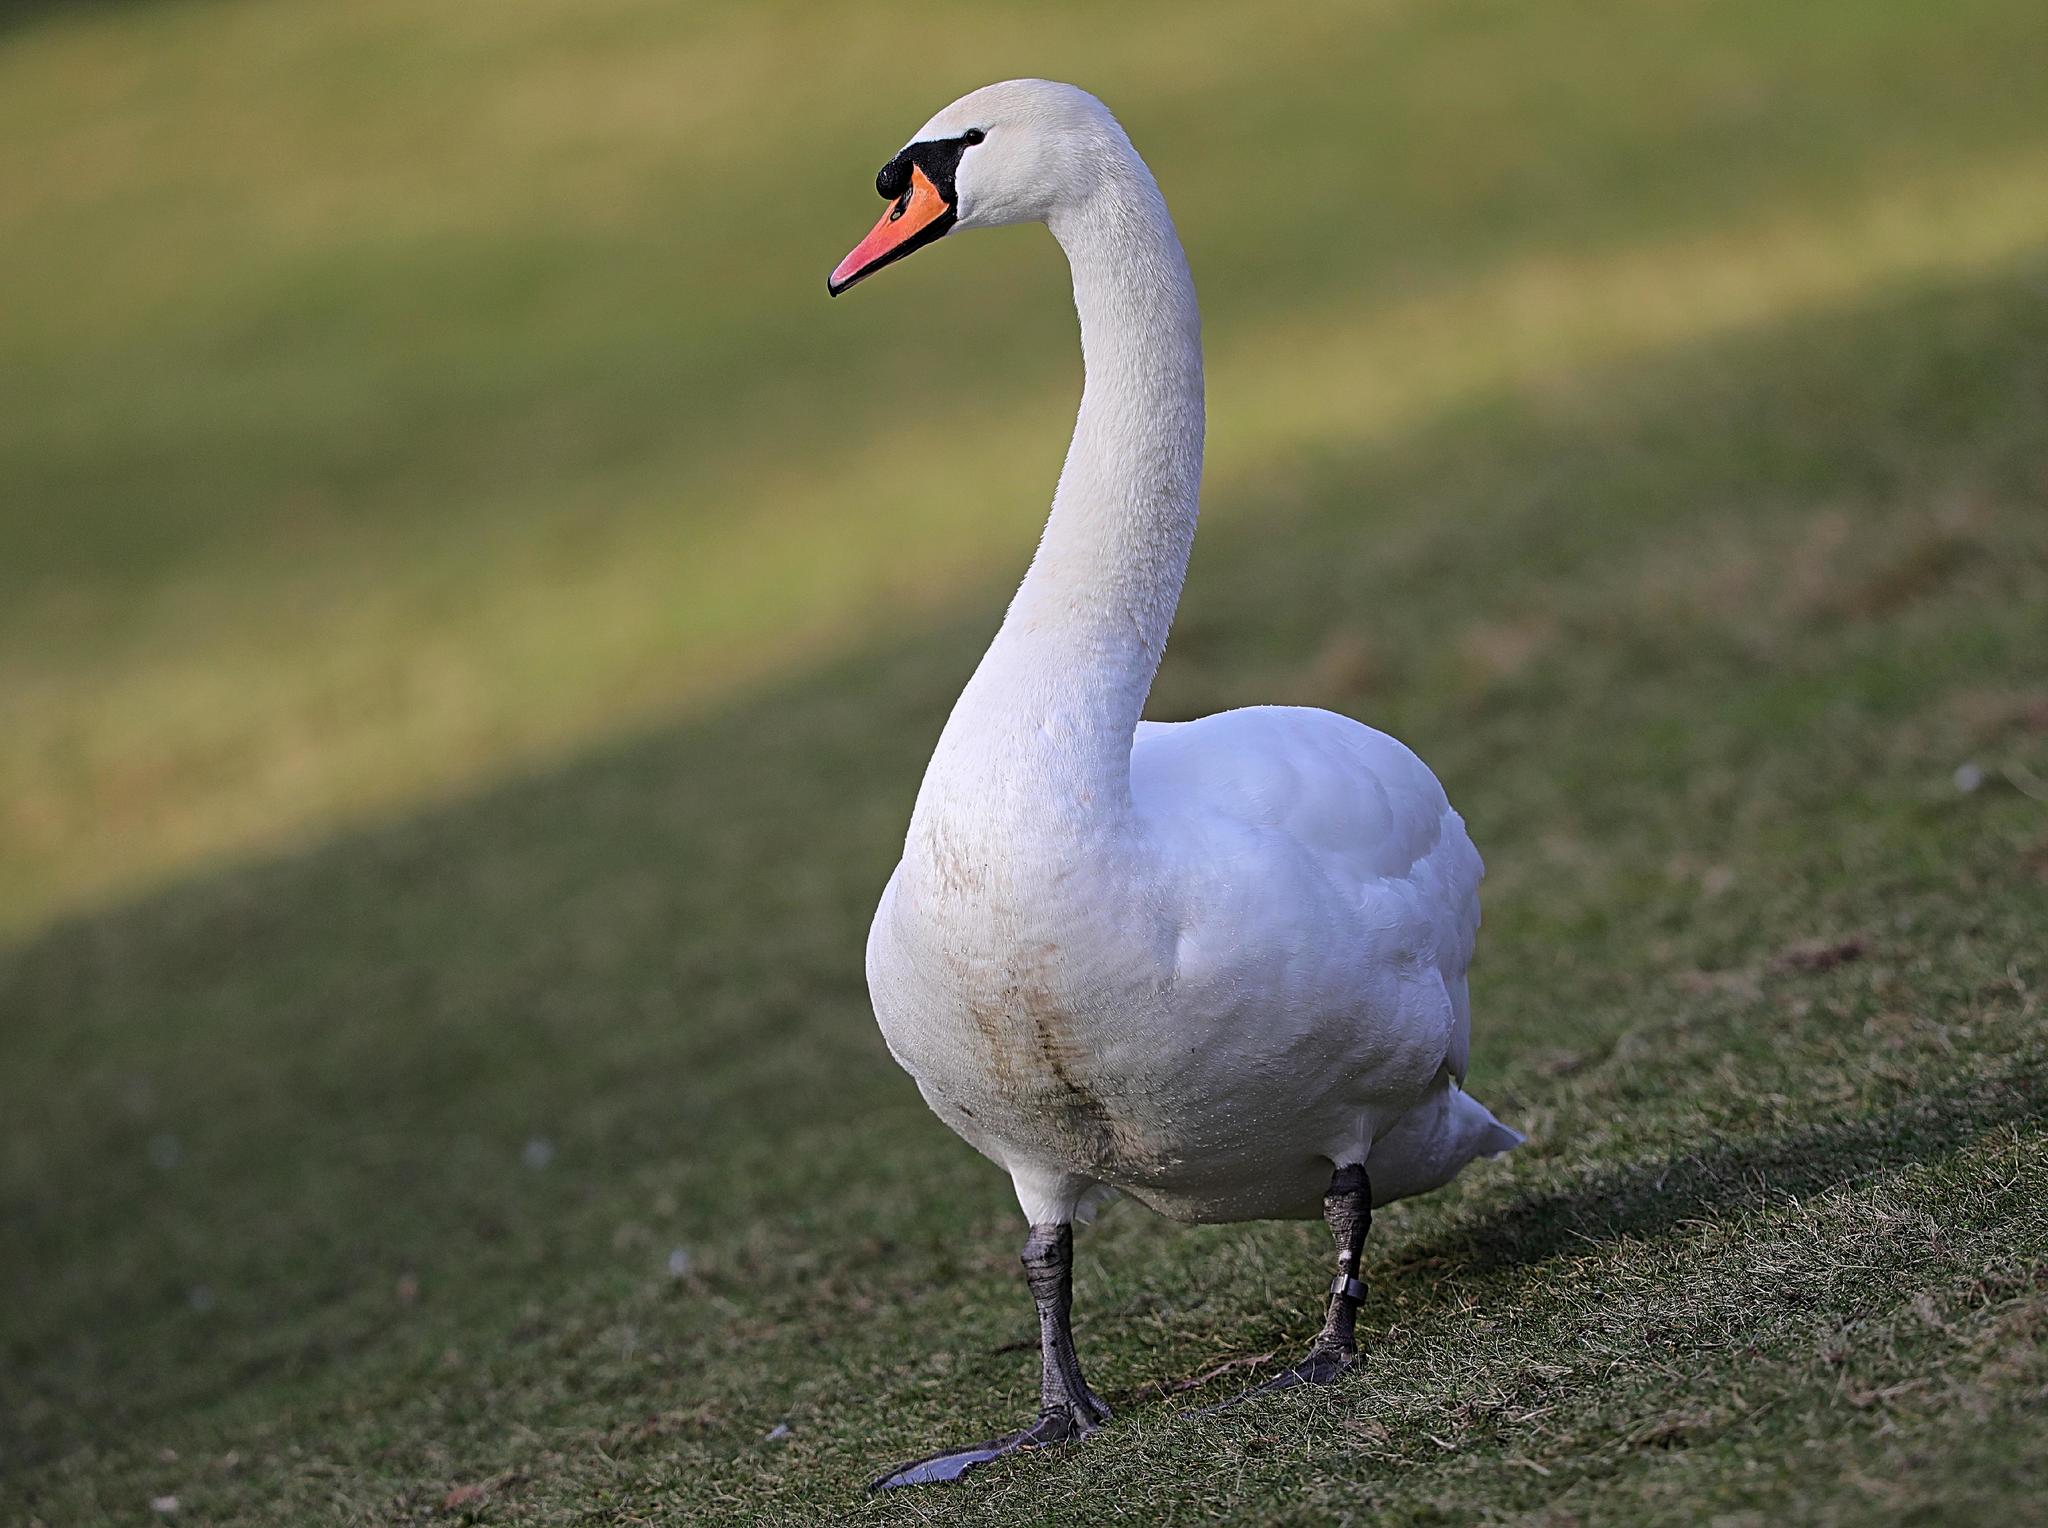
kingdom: Animalia
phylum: Chordata
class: Aves
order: Anseriformes
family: Anatidae
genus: Cygnus
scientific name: Cygnus olor
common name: Mute swan
